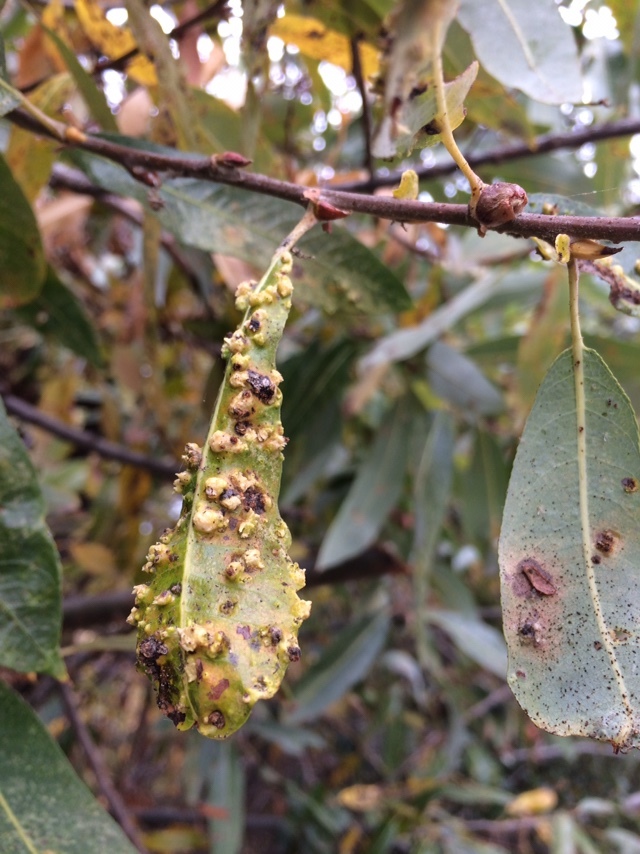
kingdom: Animalia
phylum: Arthropoda
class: Arachnida
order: Trombidiformes
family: Eriophyidae
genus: Aculus
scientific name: Aculus tetanothrix
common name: Willow bead gall mite
